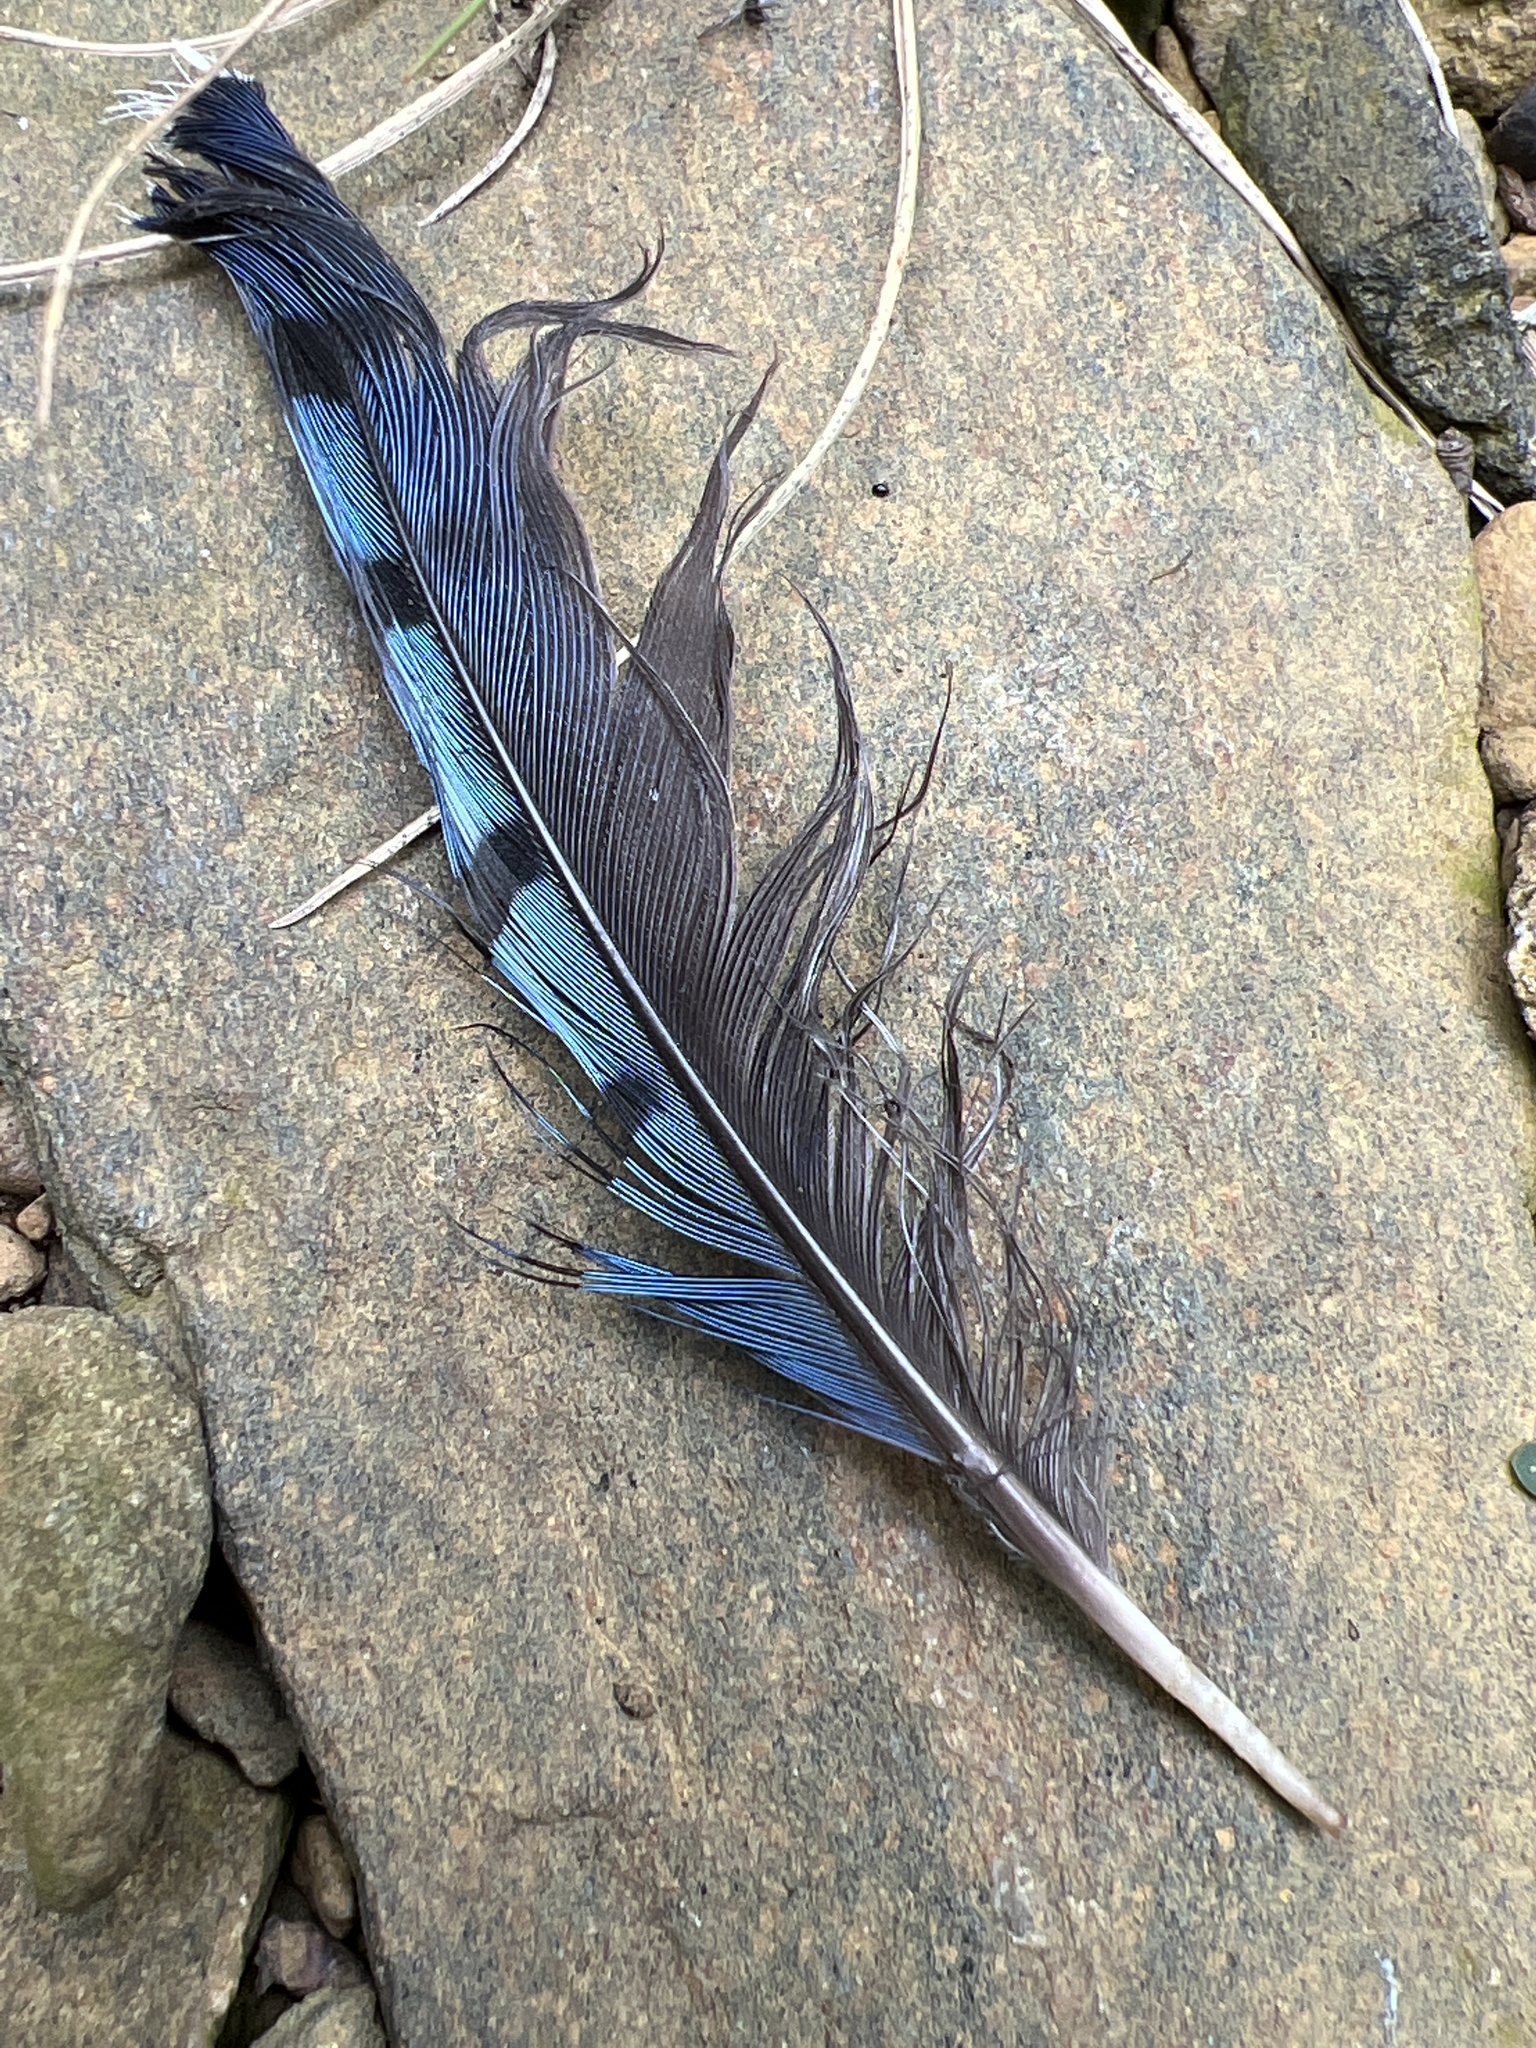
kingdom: Animalia
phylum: Chordata
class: Aves
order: Passeriformes
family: Corvidae
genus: Cyanocitta
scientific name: Cyanocitta cristata
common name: Blue jay
